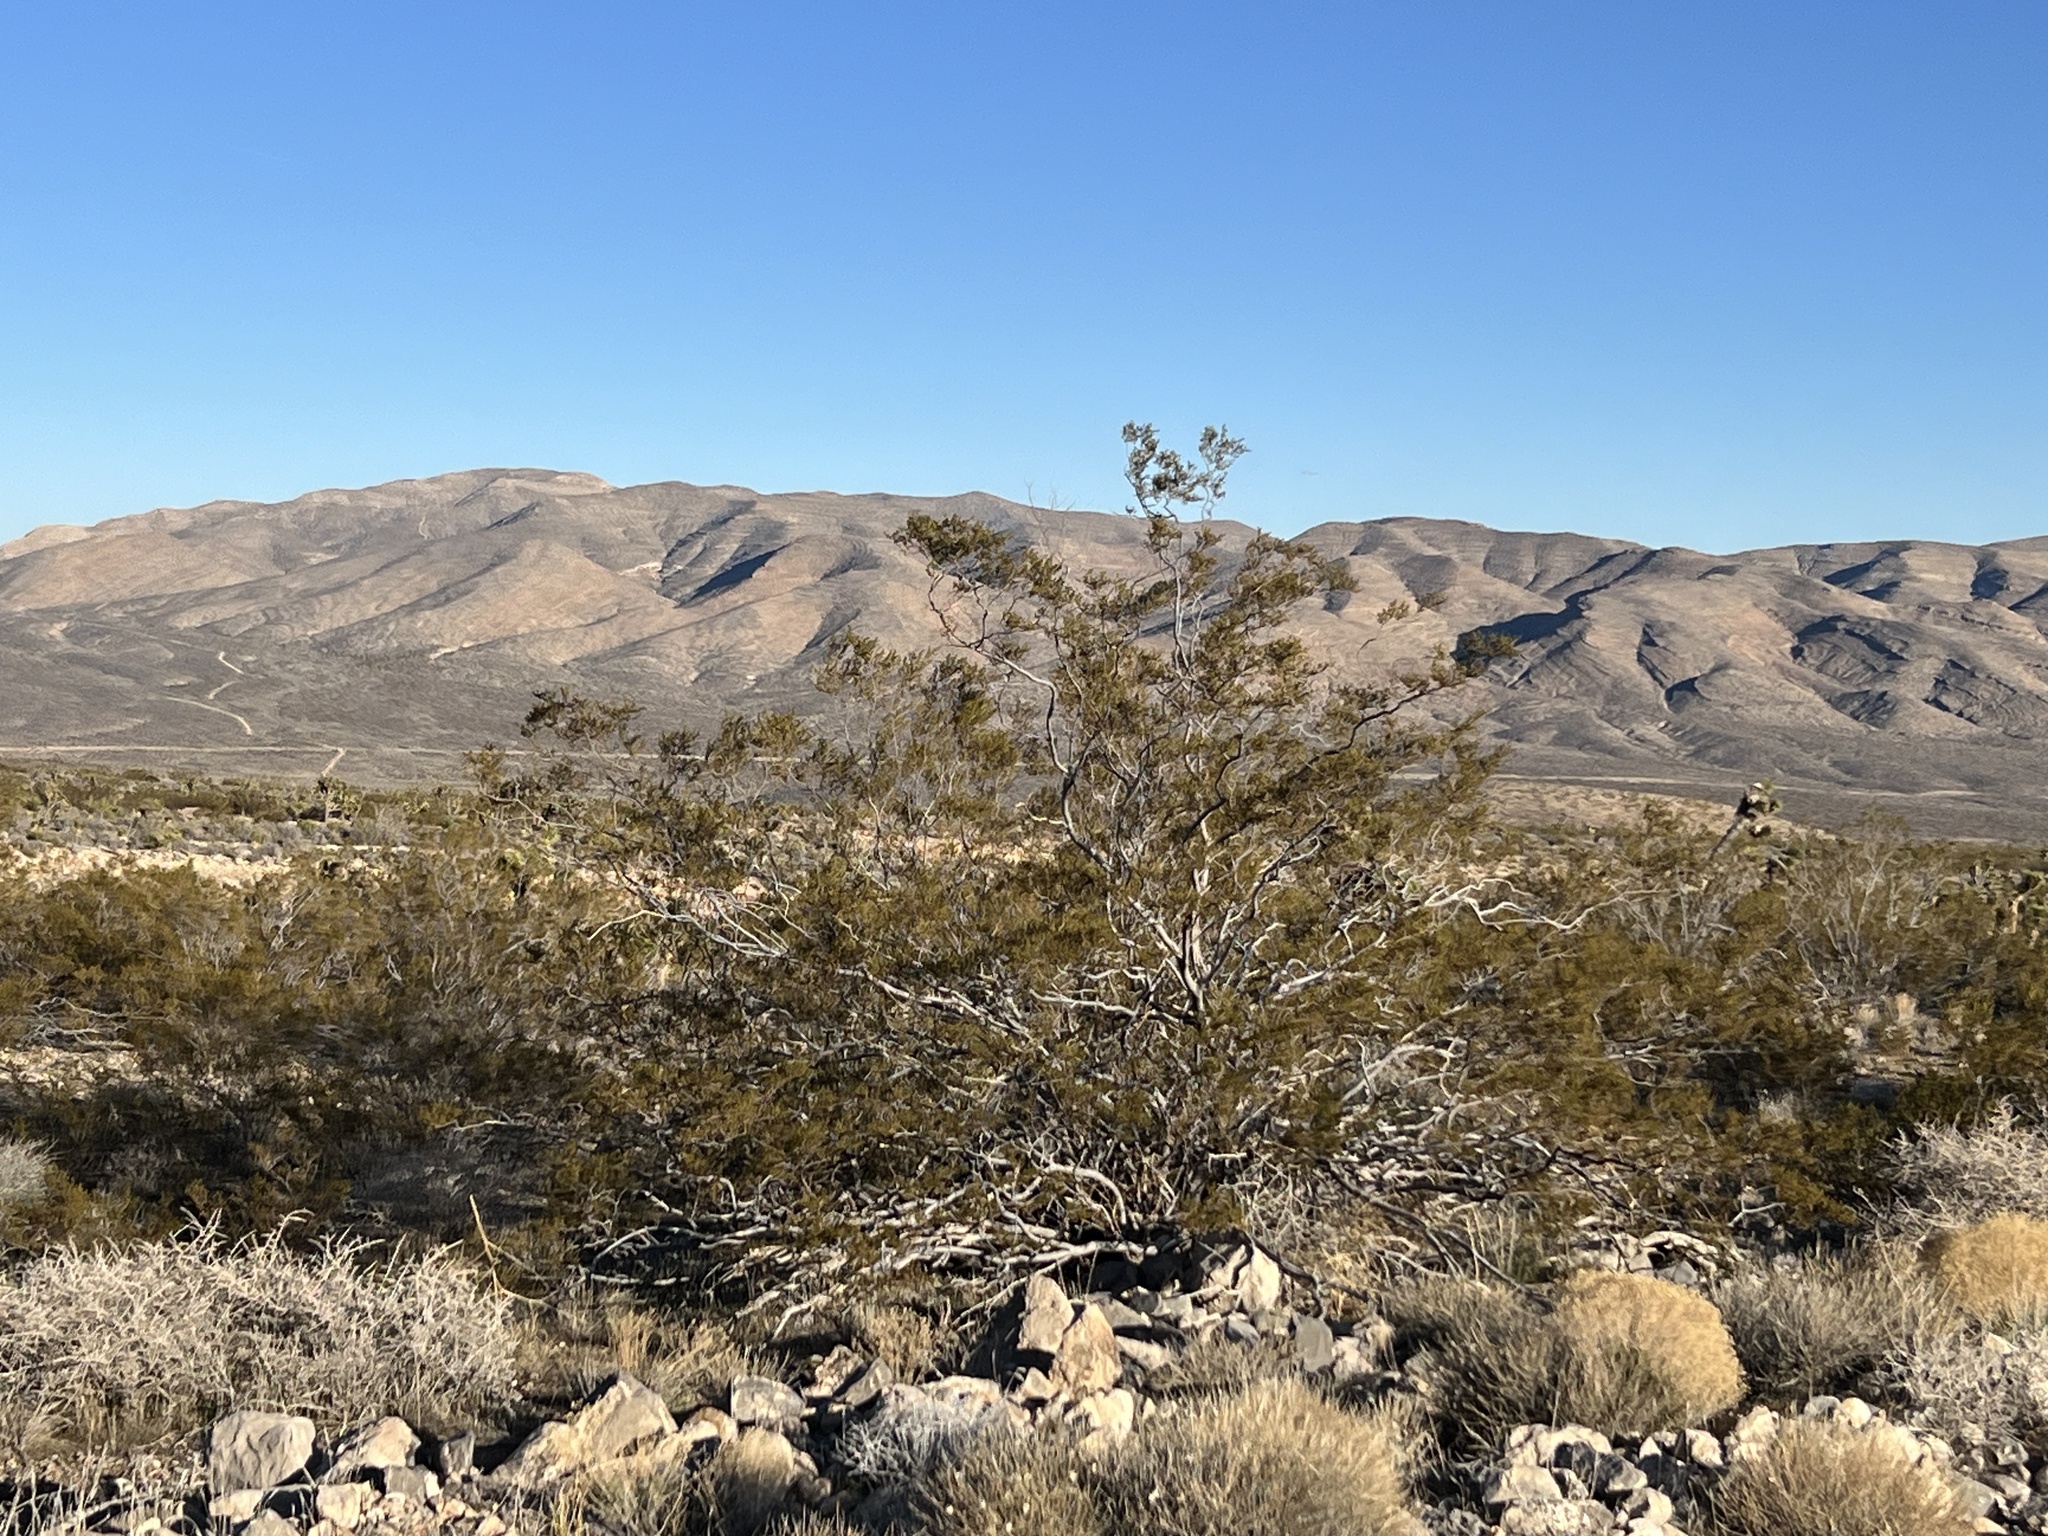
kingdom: Plantae
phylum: Tracheophyta
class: Magnoliopsida
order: Zygophyllales
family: Zygophyllaceae
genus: Larrea
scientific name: Larrea tridentata
